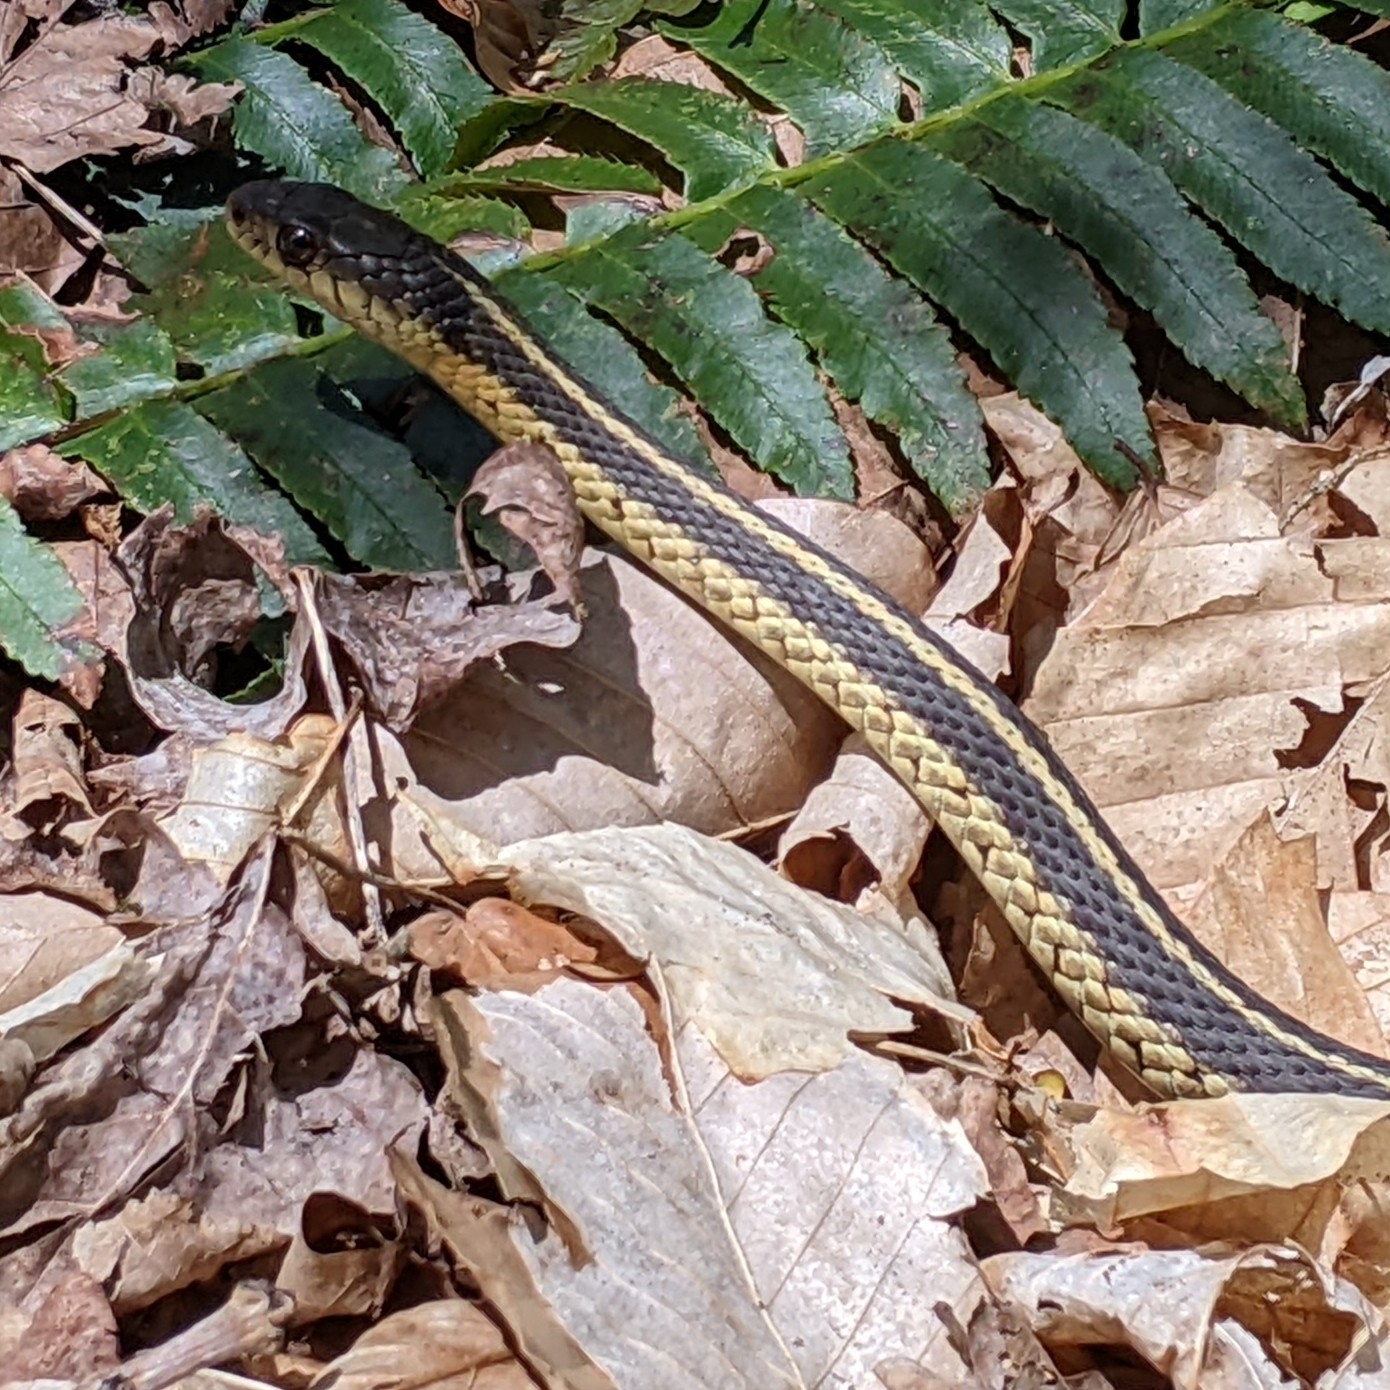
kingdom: Animalia
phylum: Chordata
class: Squamata
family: Colubridae
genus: Thamnophis
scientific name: Thamnophis sirtalis
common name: Common garter snake
